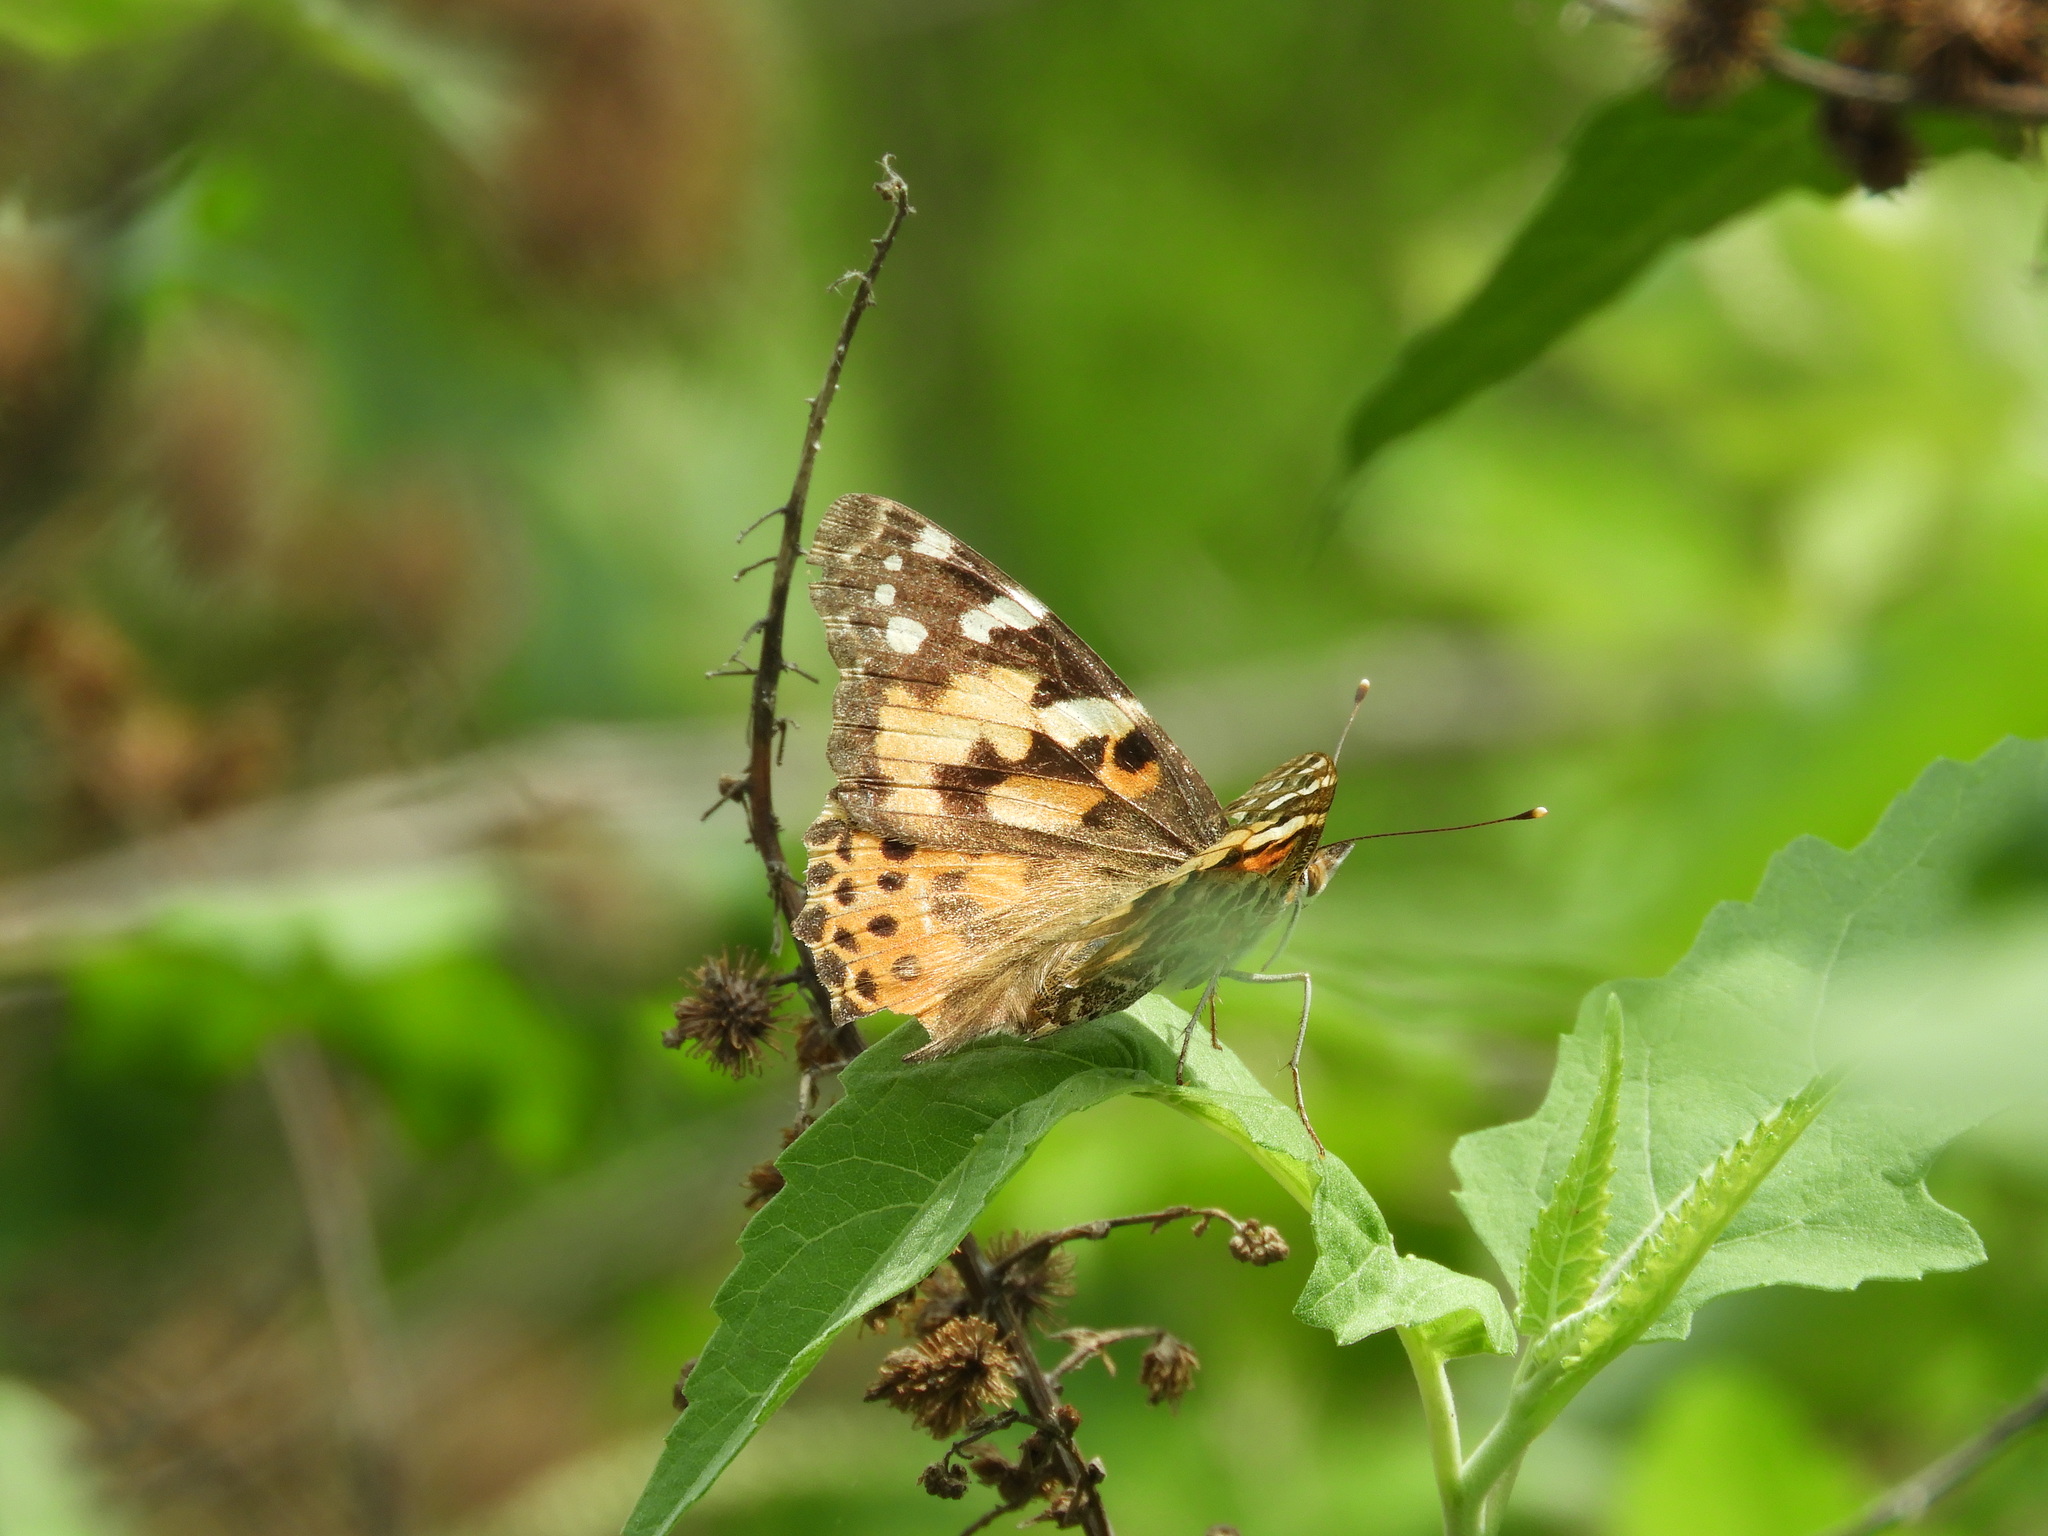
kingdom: Animalia
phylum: Arthropoda
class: Insecta
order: Lepidoptera
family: Nymphalidae
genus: Vanessa
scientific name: Vanessa cardui
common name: Painted lady
